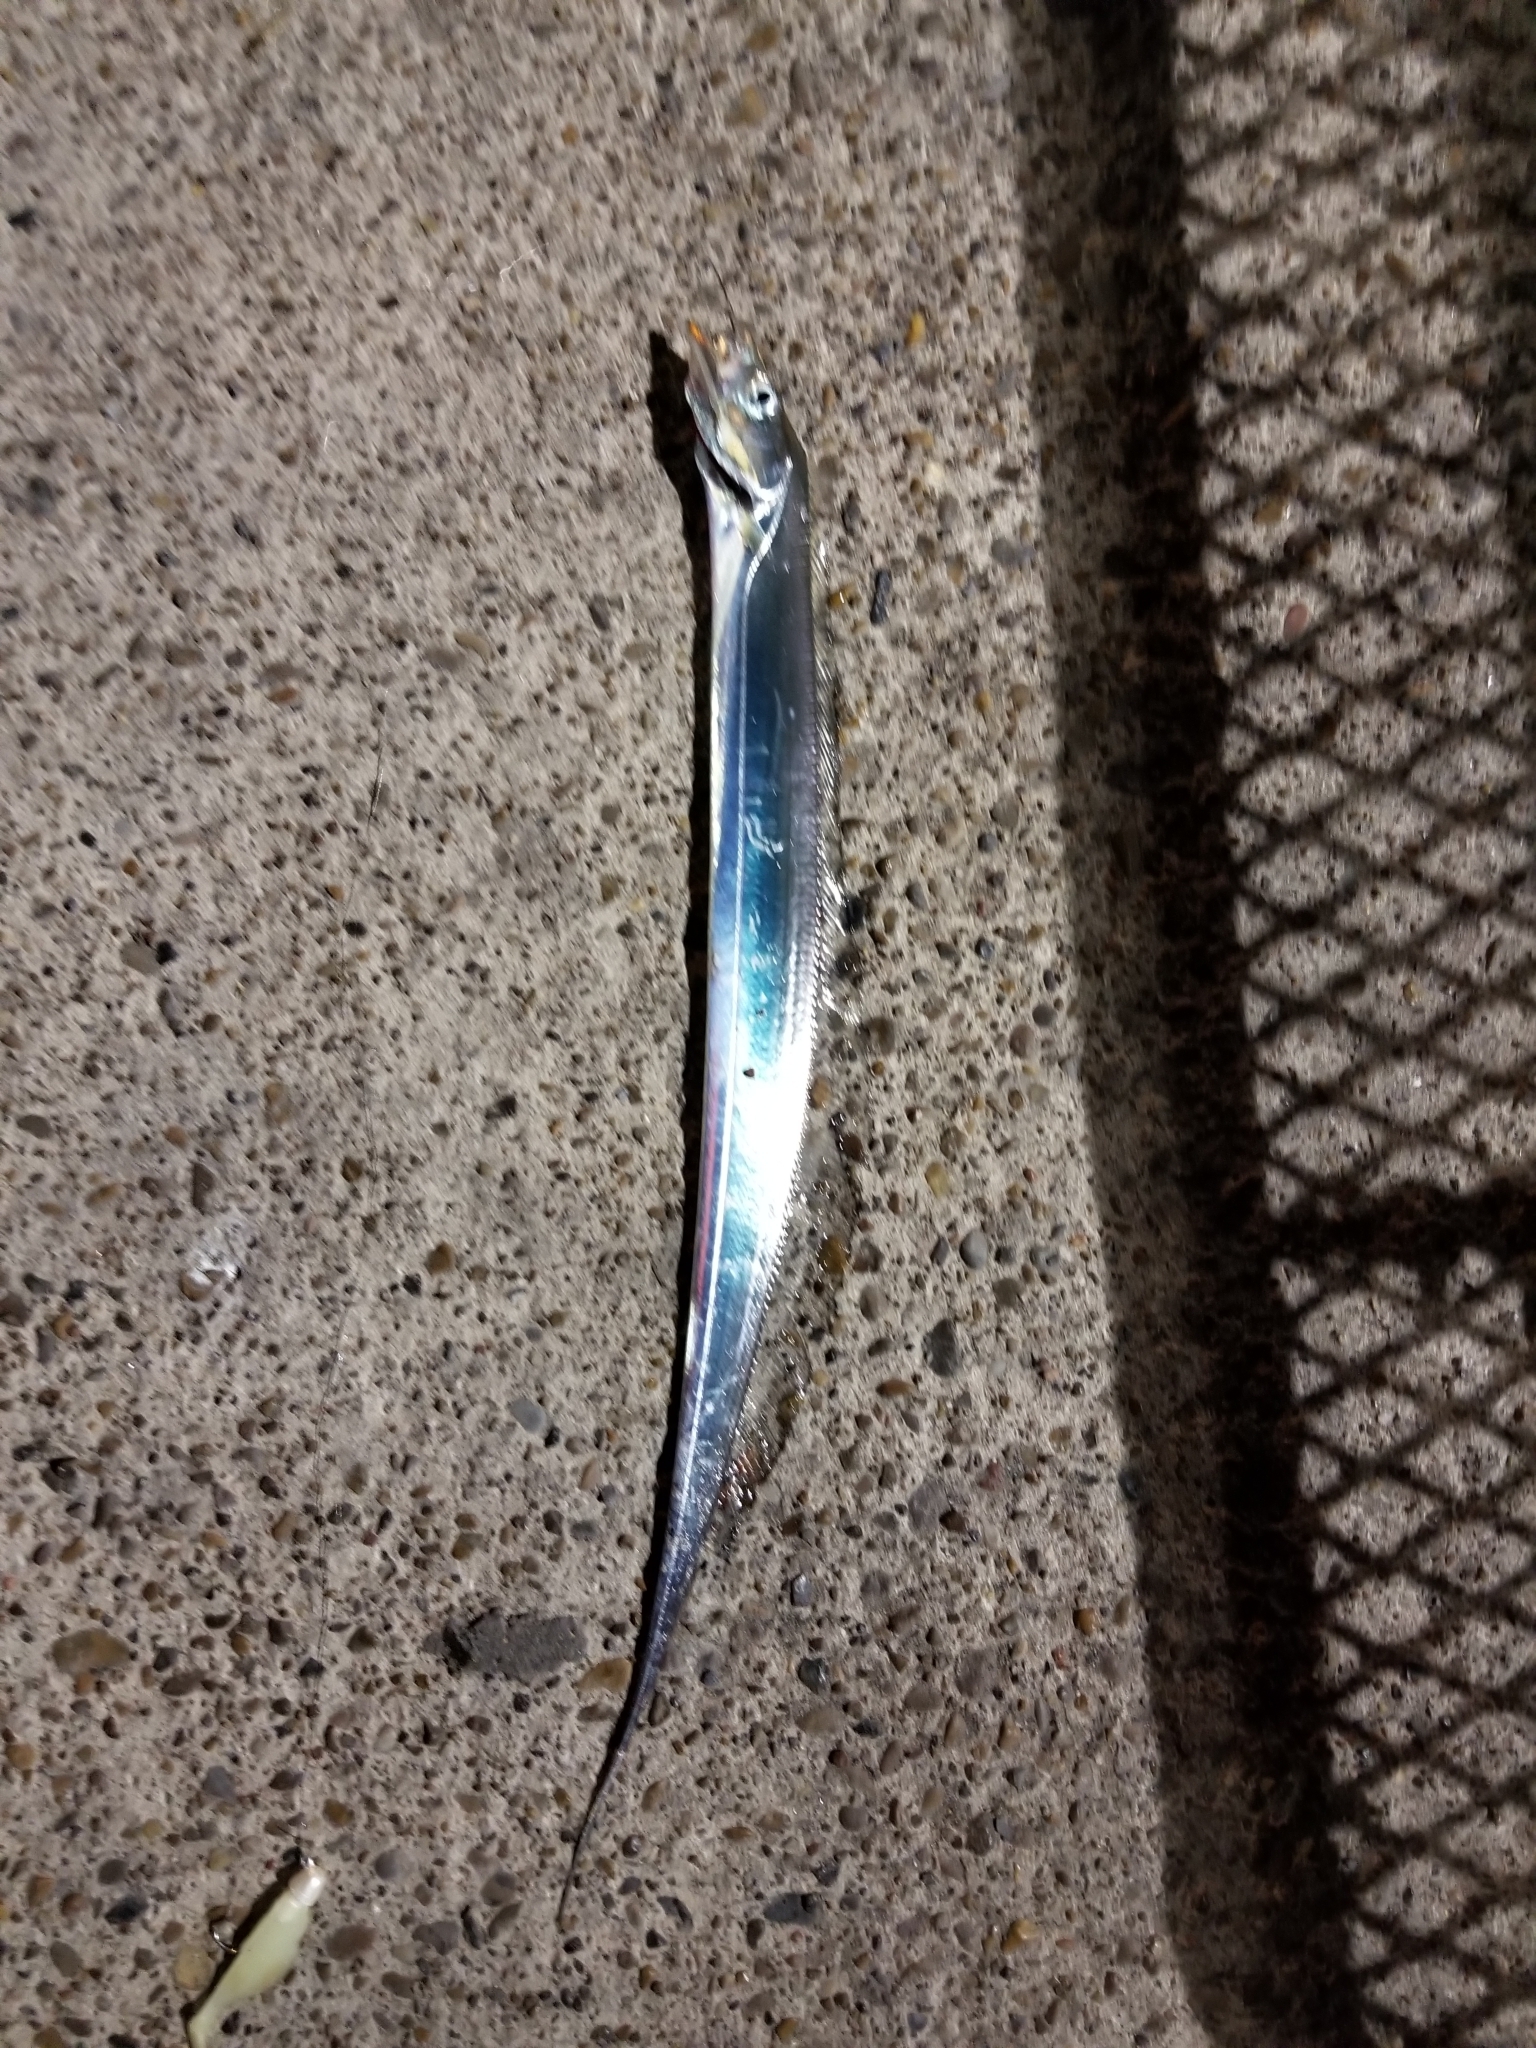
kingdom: Animalia
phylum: Chordata
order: Perciformes
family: Trichiuridae
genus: Trichiurus
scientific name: Trichiurus lepturus
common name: Largehead hairtail
